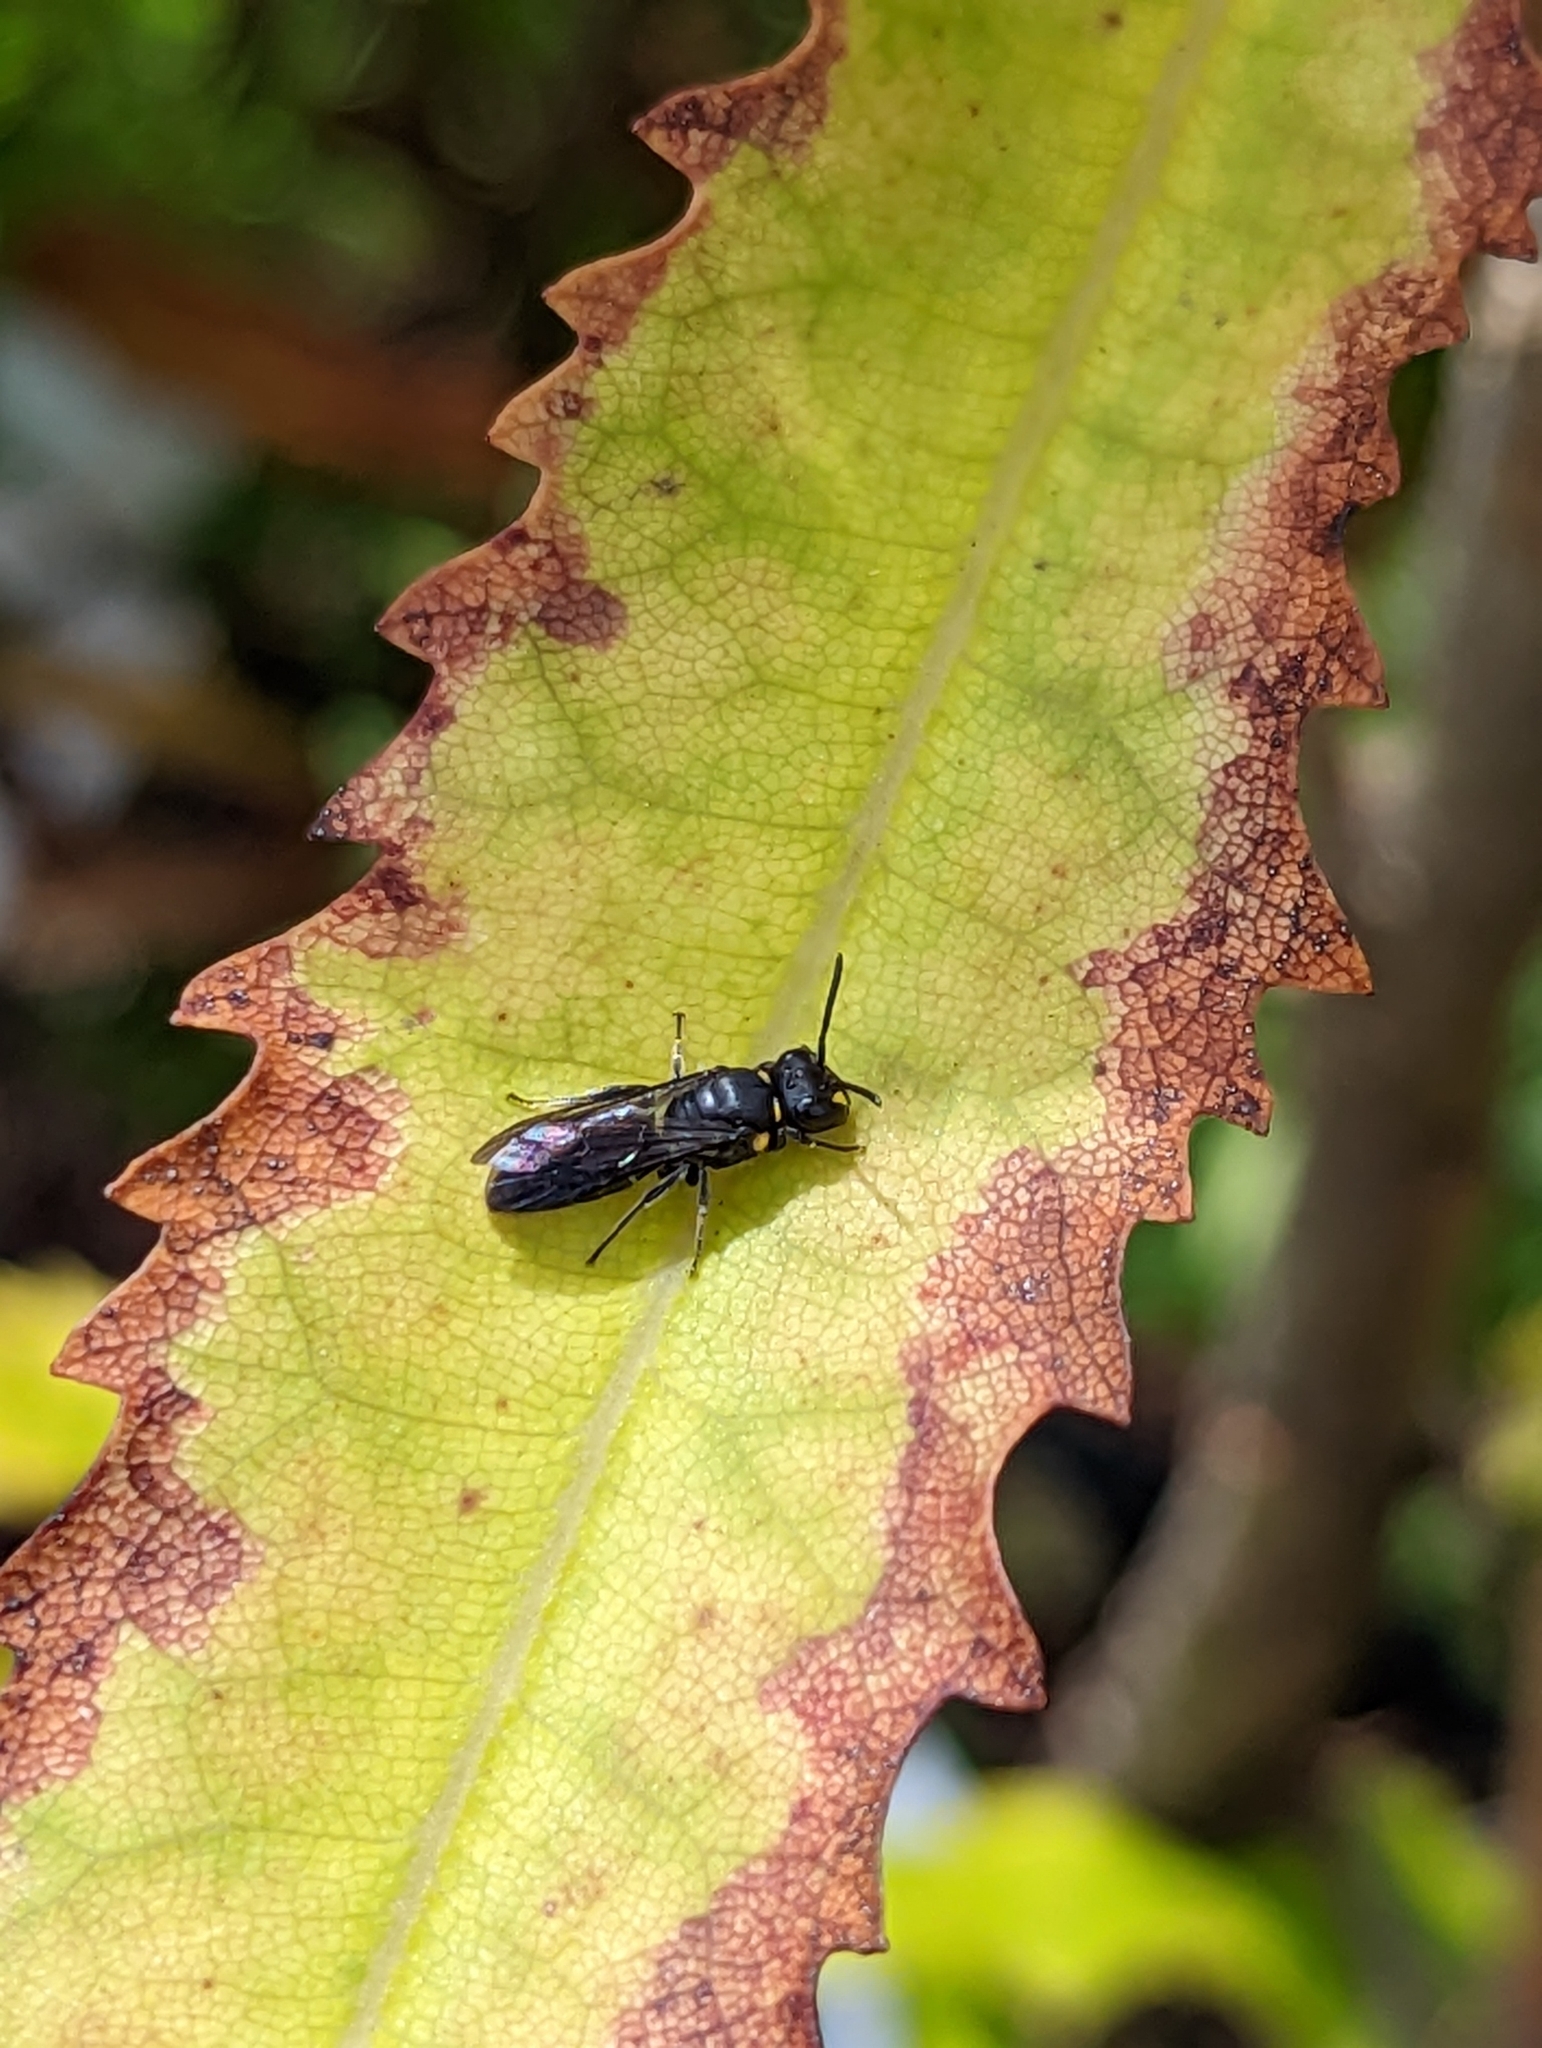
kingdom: Animalia
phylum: Arthropoda
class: Insecta
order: Hymenoptera
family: Colletidae
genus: Hylaeus
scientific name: Hylaeus relegatus
